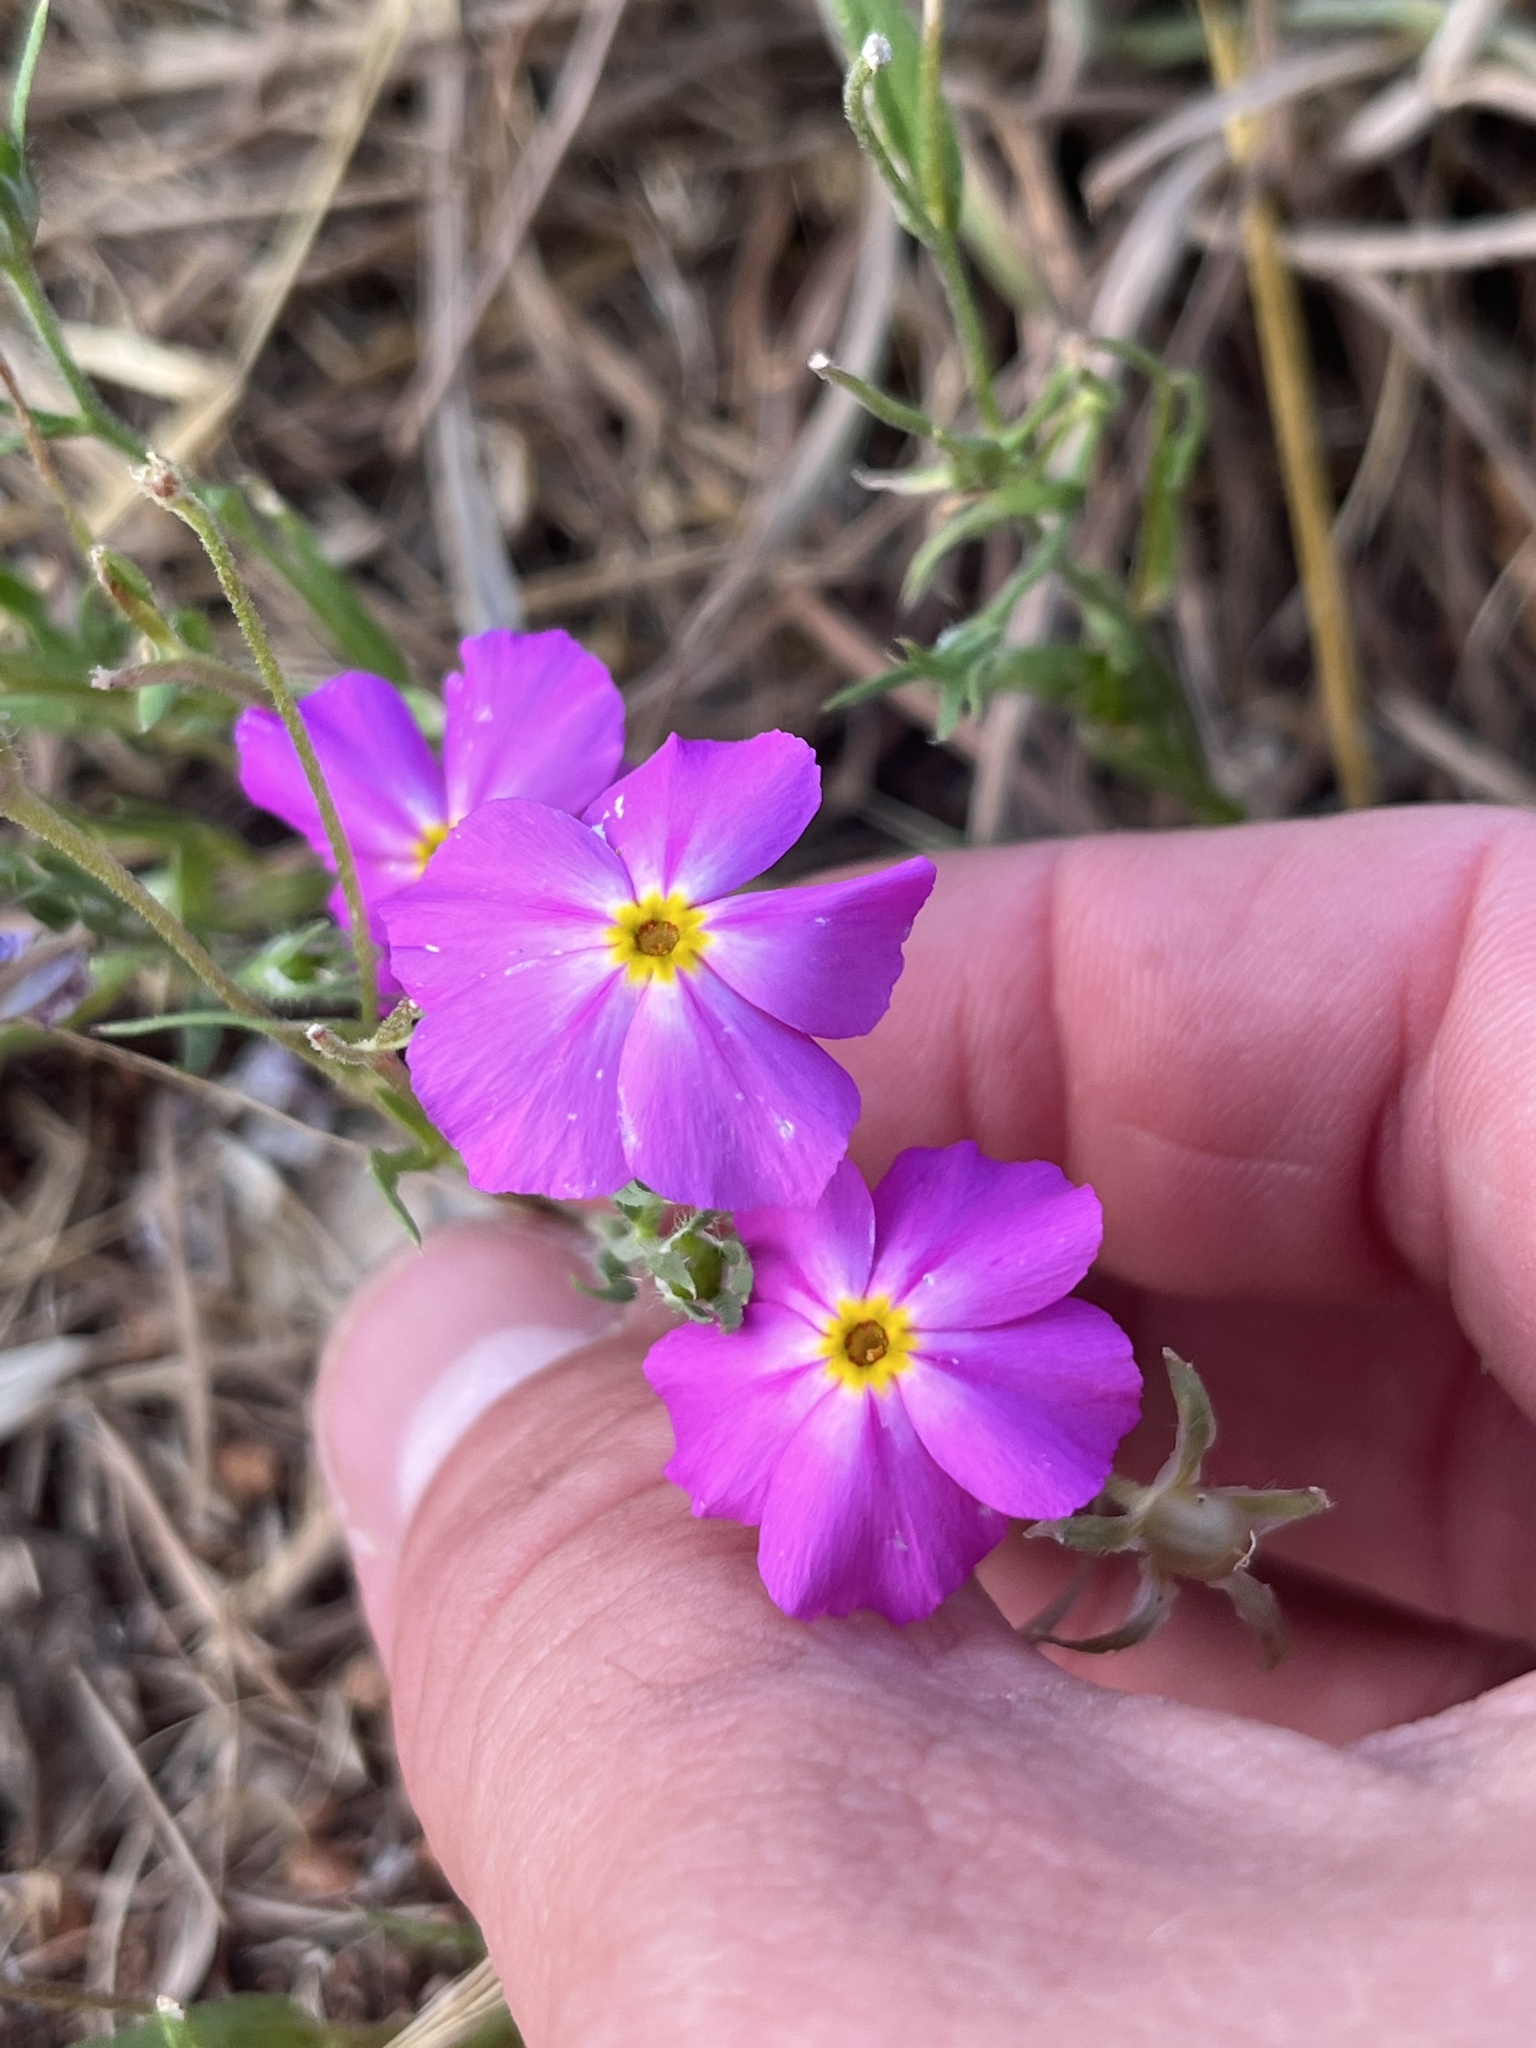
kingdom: Plantae
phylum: Tracheophyta
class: Magnoliopsida
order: Ericales
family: Polemoniaceae
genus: Phlox
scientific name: Phlox roemeriana
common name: Roemer's phlox
